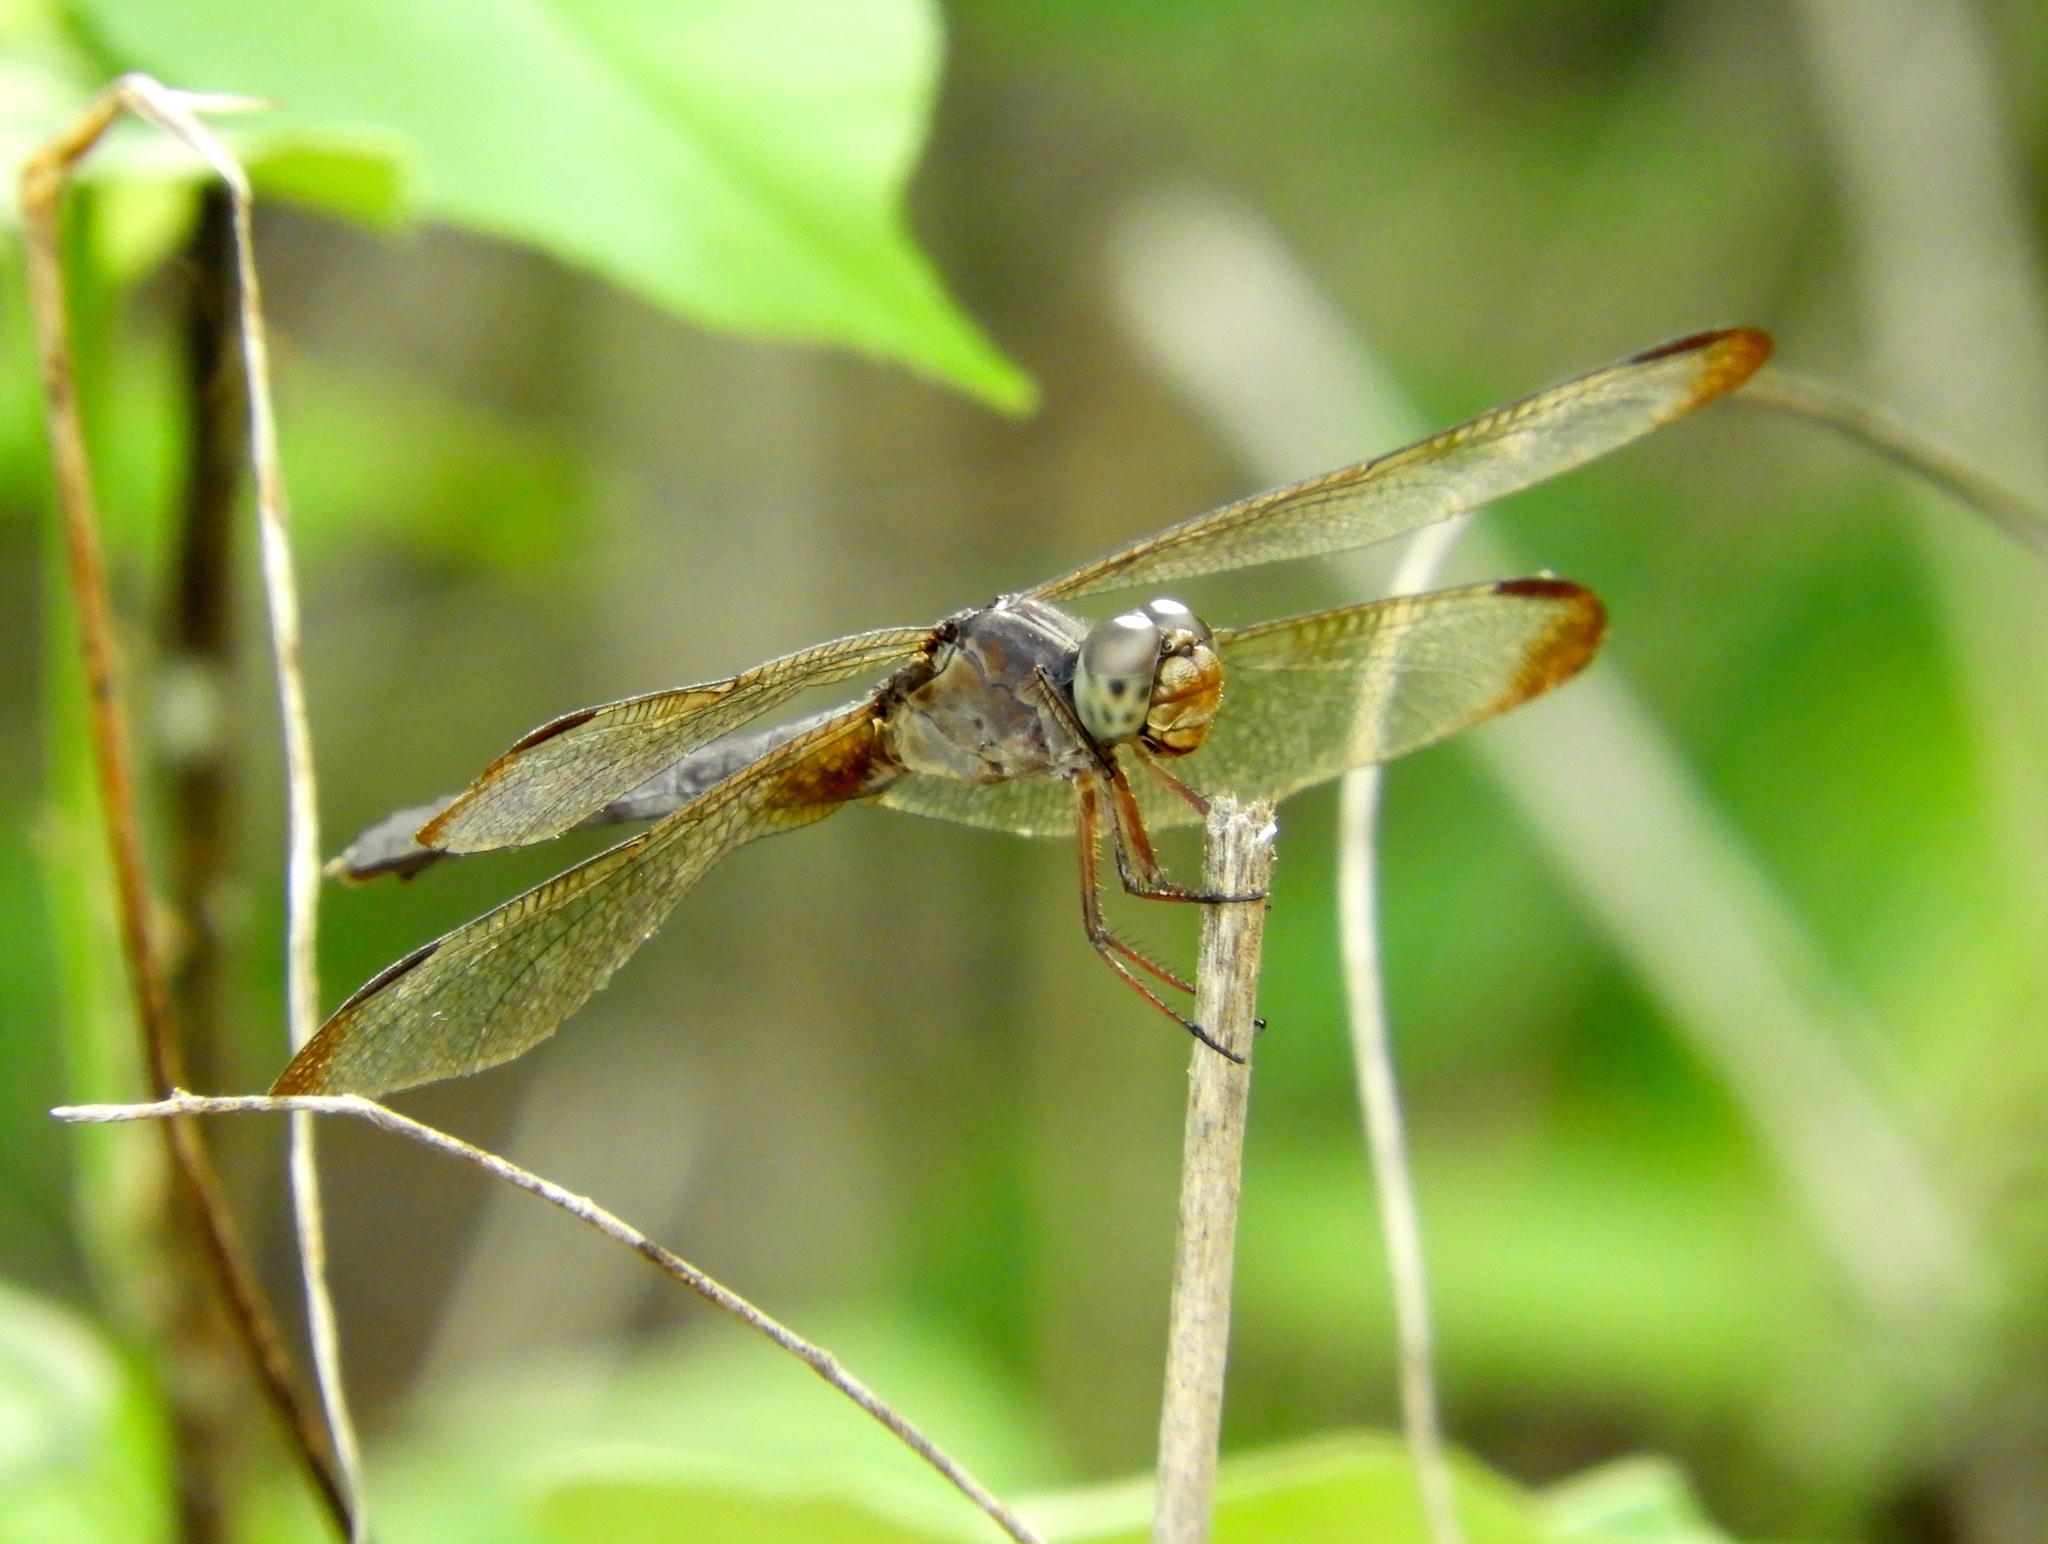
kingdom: Animalia
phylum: Arthropoda
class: Insecta
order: Odonata
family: Libellulidae
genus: Erythrodiplax
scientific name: Erythrodiplax funerea
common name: Black-winged dragonlet
